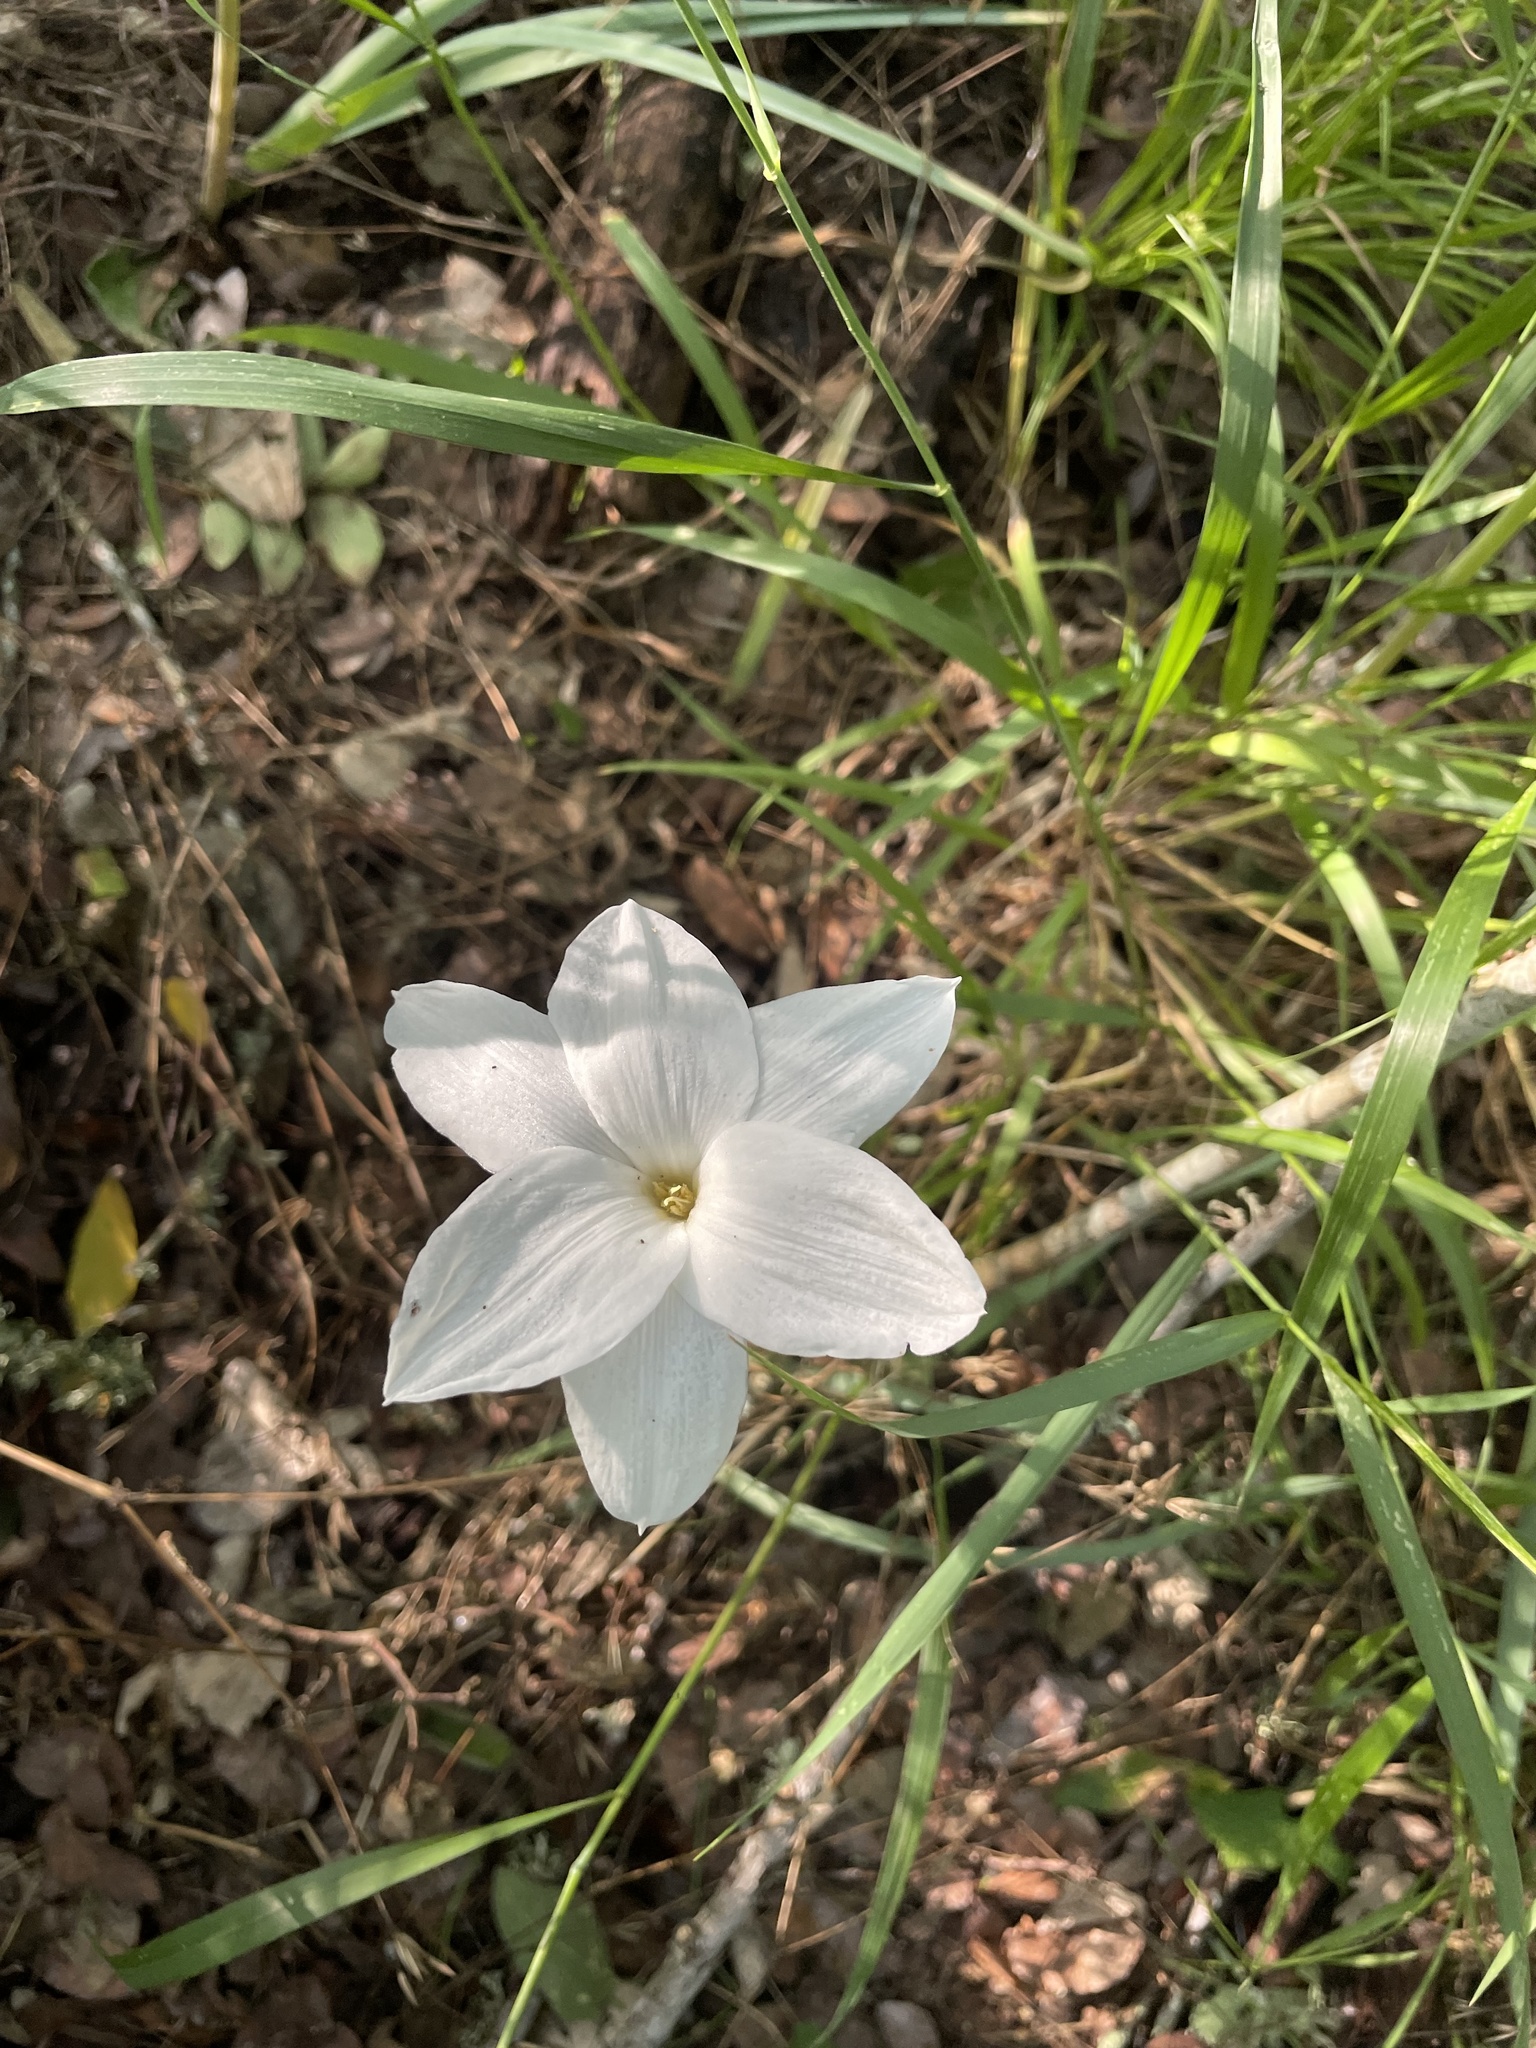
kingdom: Plantae
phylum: Tracheophyta
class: Liliopsida
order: Asparagales
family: Amaryllidaceae
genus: Zephyranthes
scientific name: Zephyranthes drummondii
